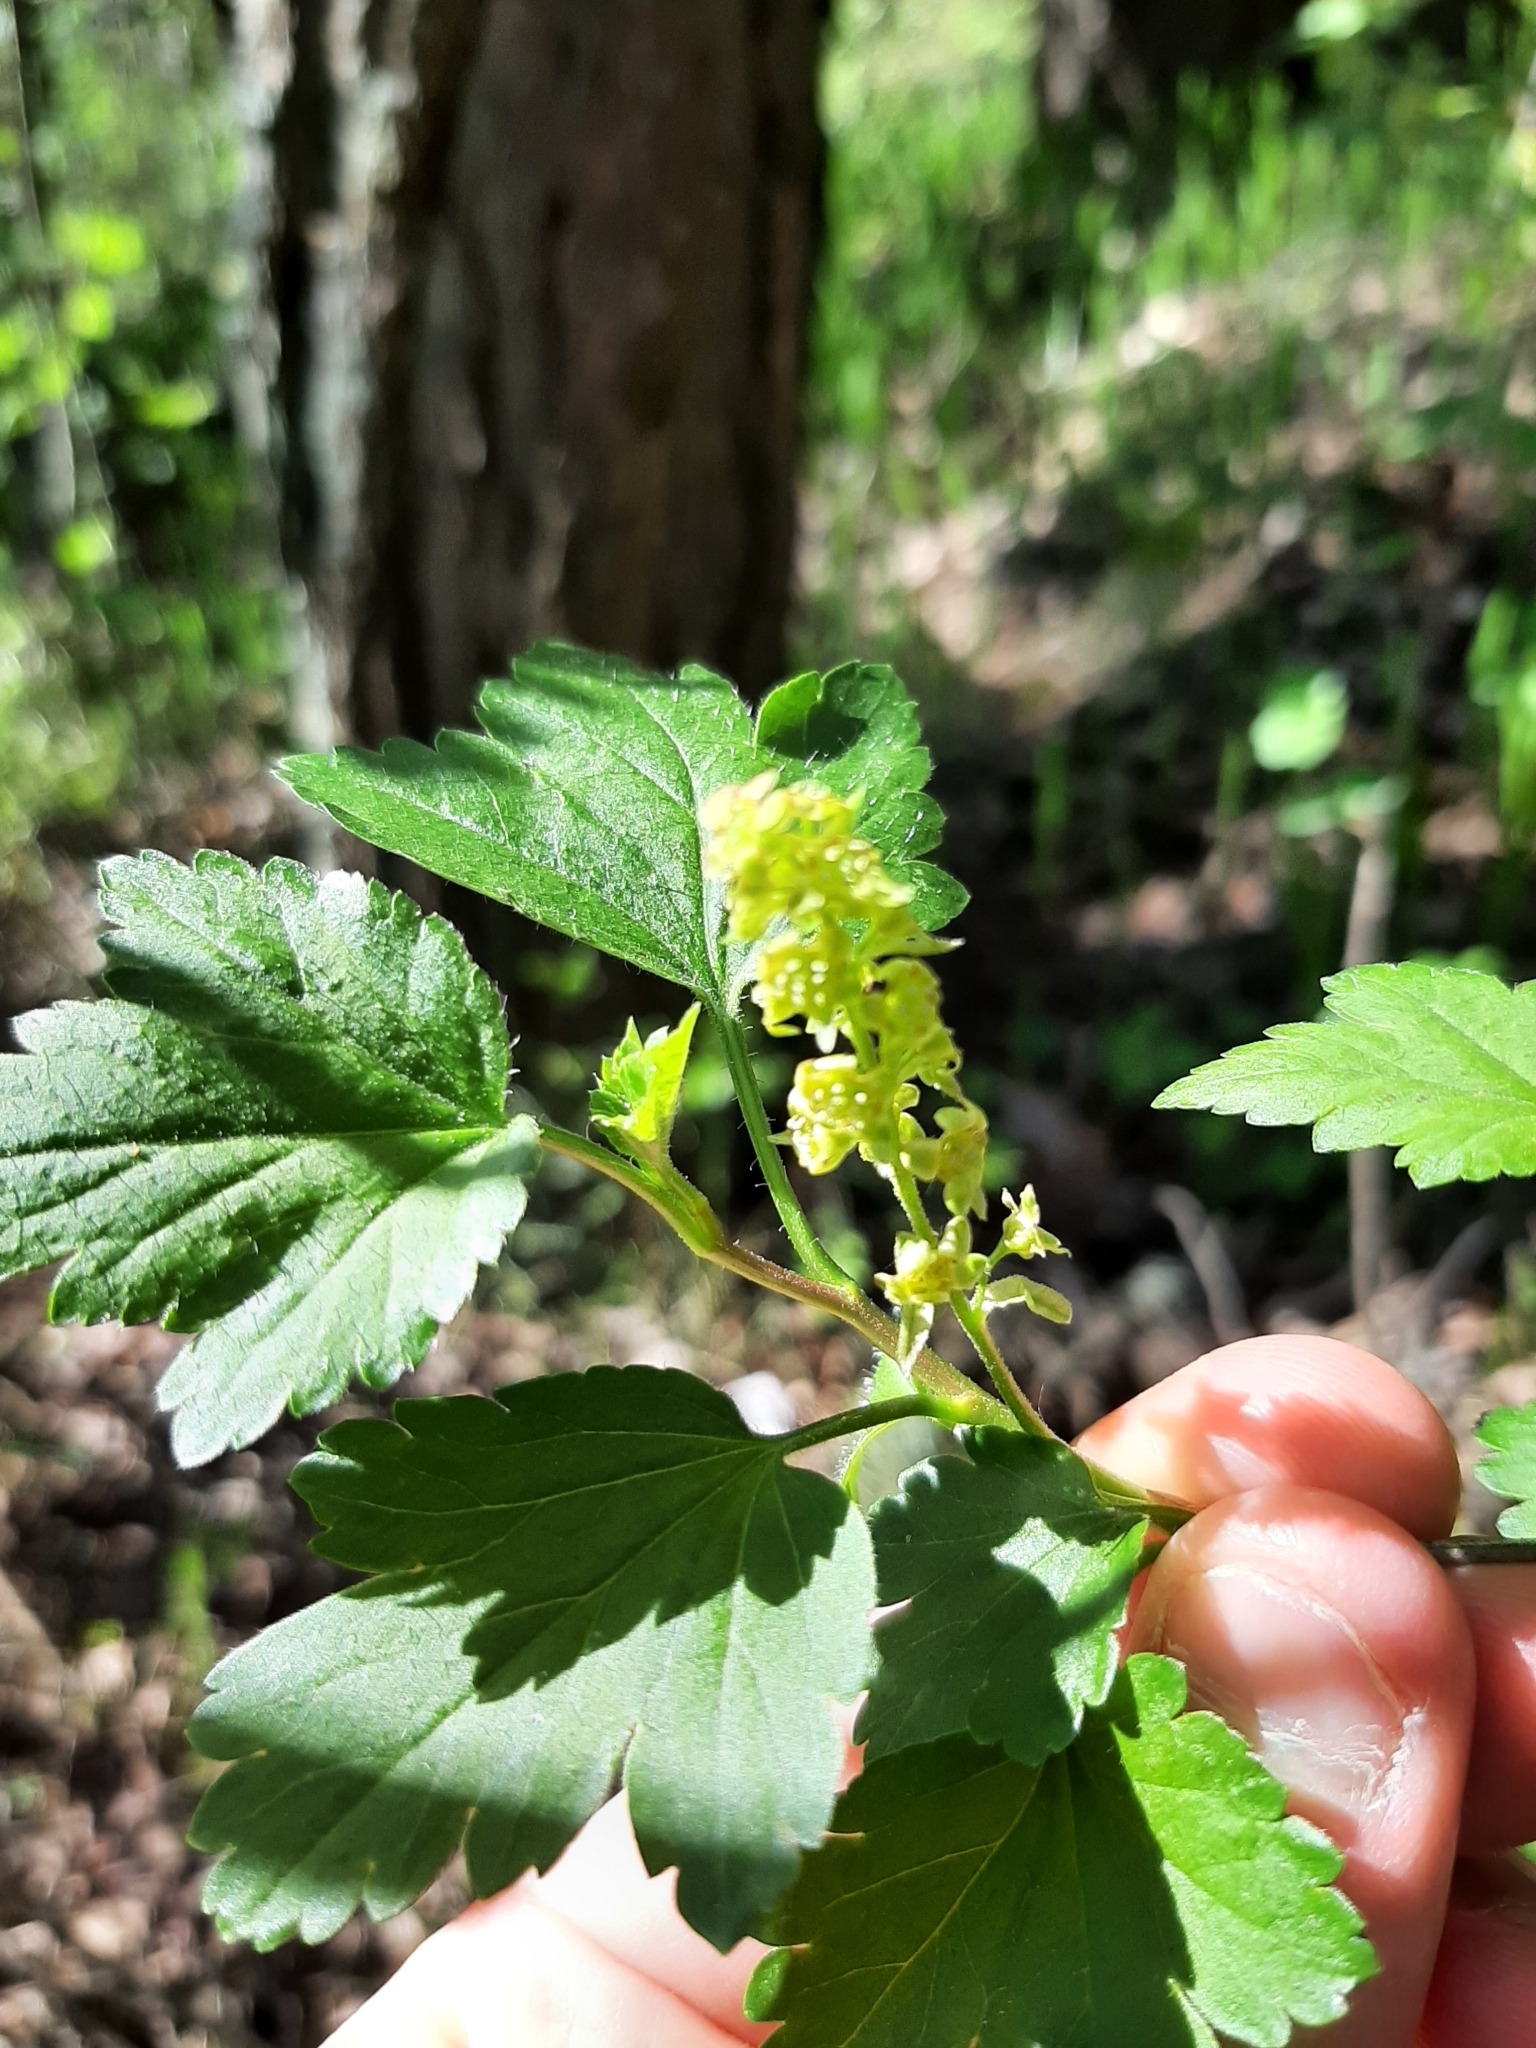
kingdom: Plantae
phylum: Tracheophyta
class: Magnoliopsida
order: Saxifragales
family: Grossulariaceae
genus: Ribes
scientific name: Ribes alpinum
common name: Alpine currant
